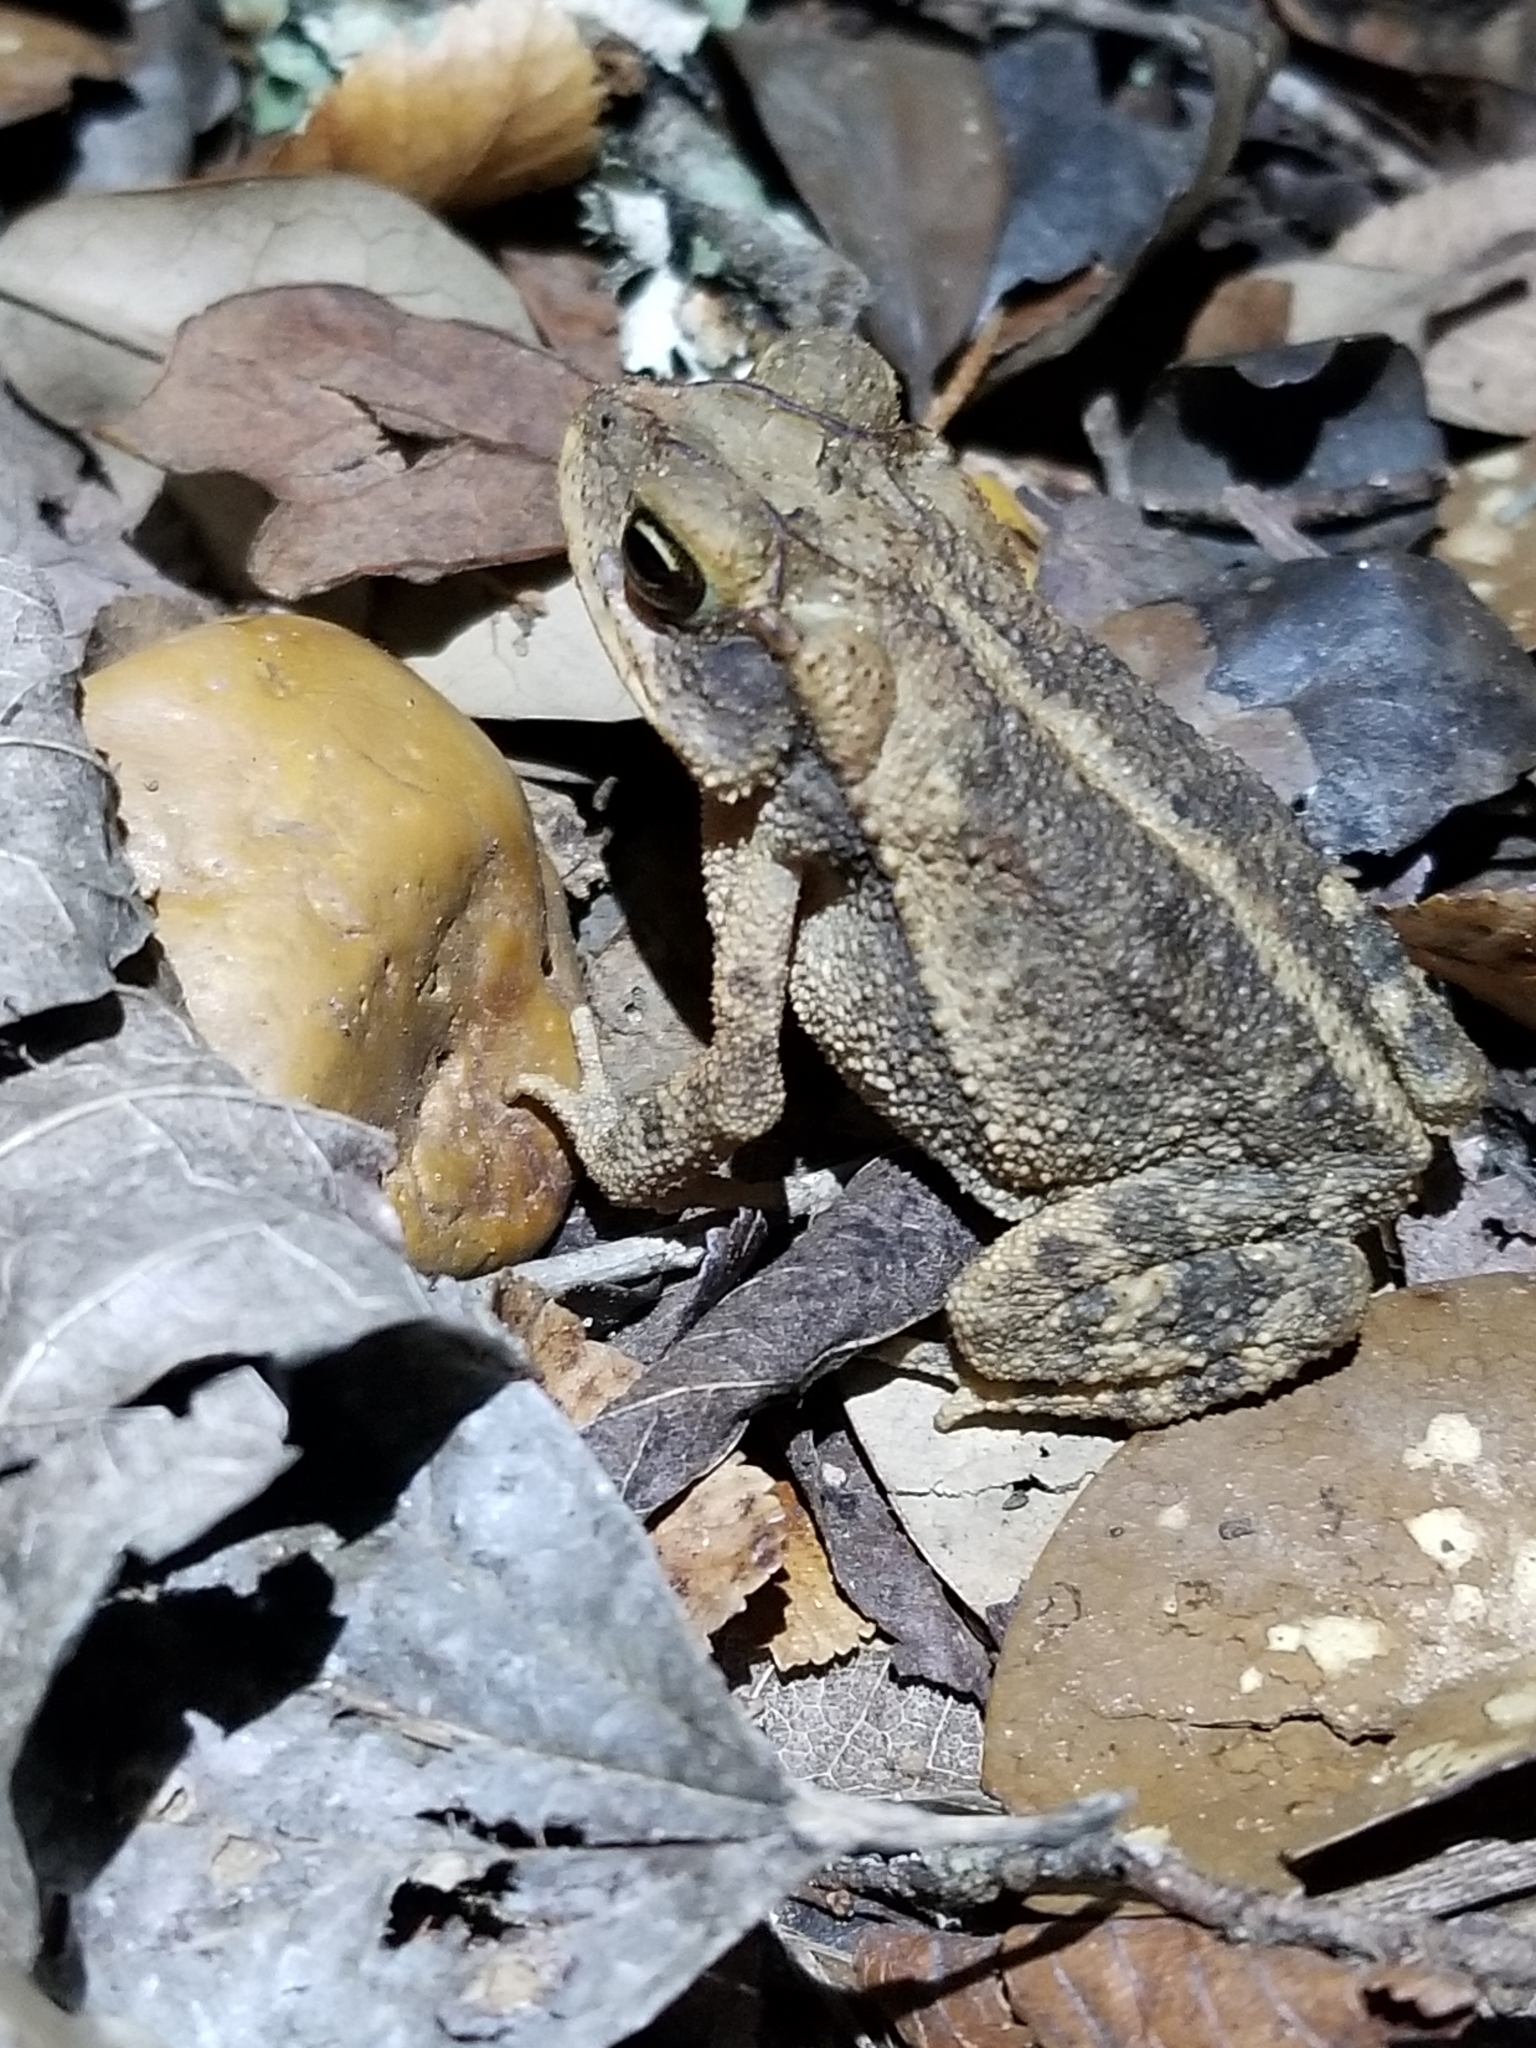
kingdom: Animalia
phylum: Chordata
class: Amphibia
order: Anura
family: Bufonidae
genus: Incilius
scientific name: Incilius nebulifer
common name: Gulf coast toad
